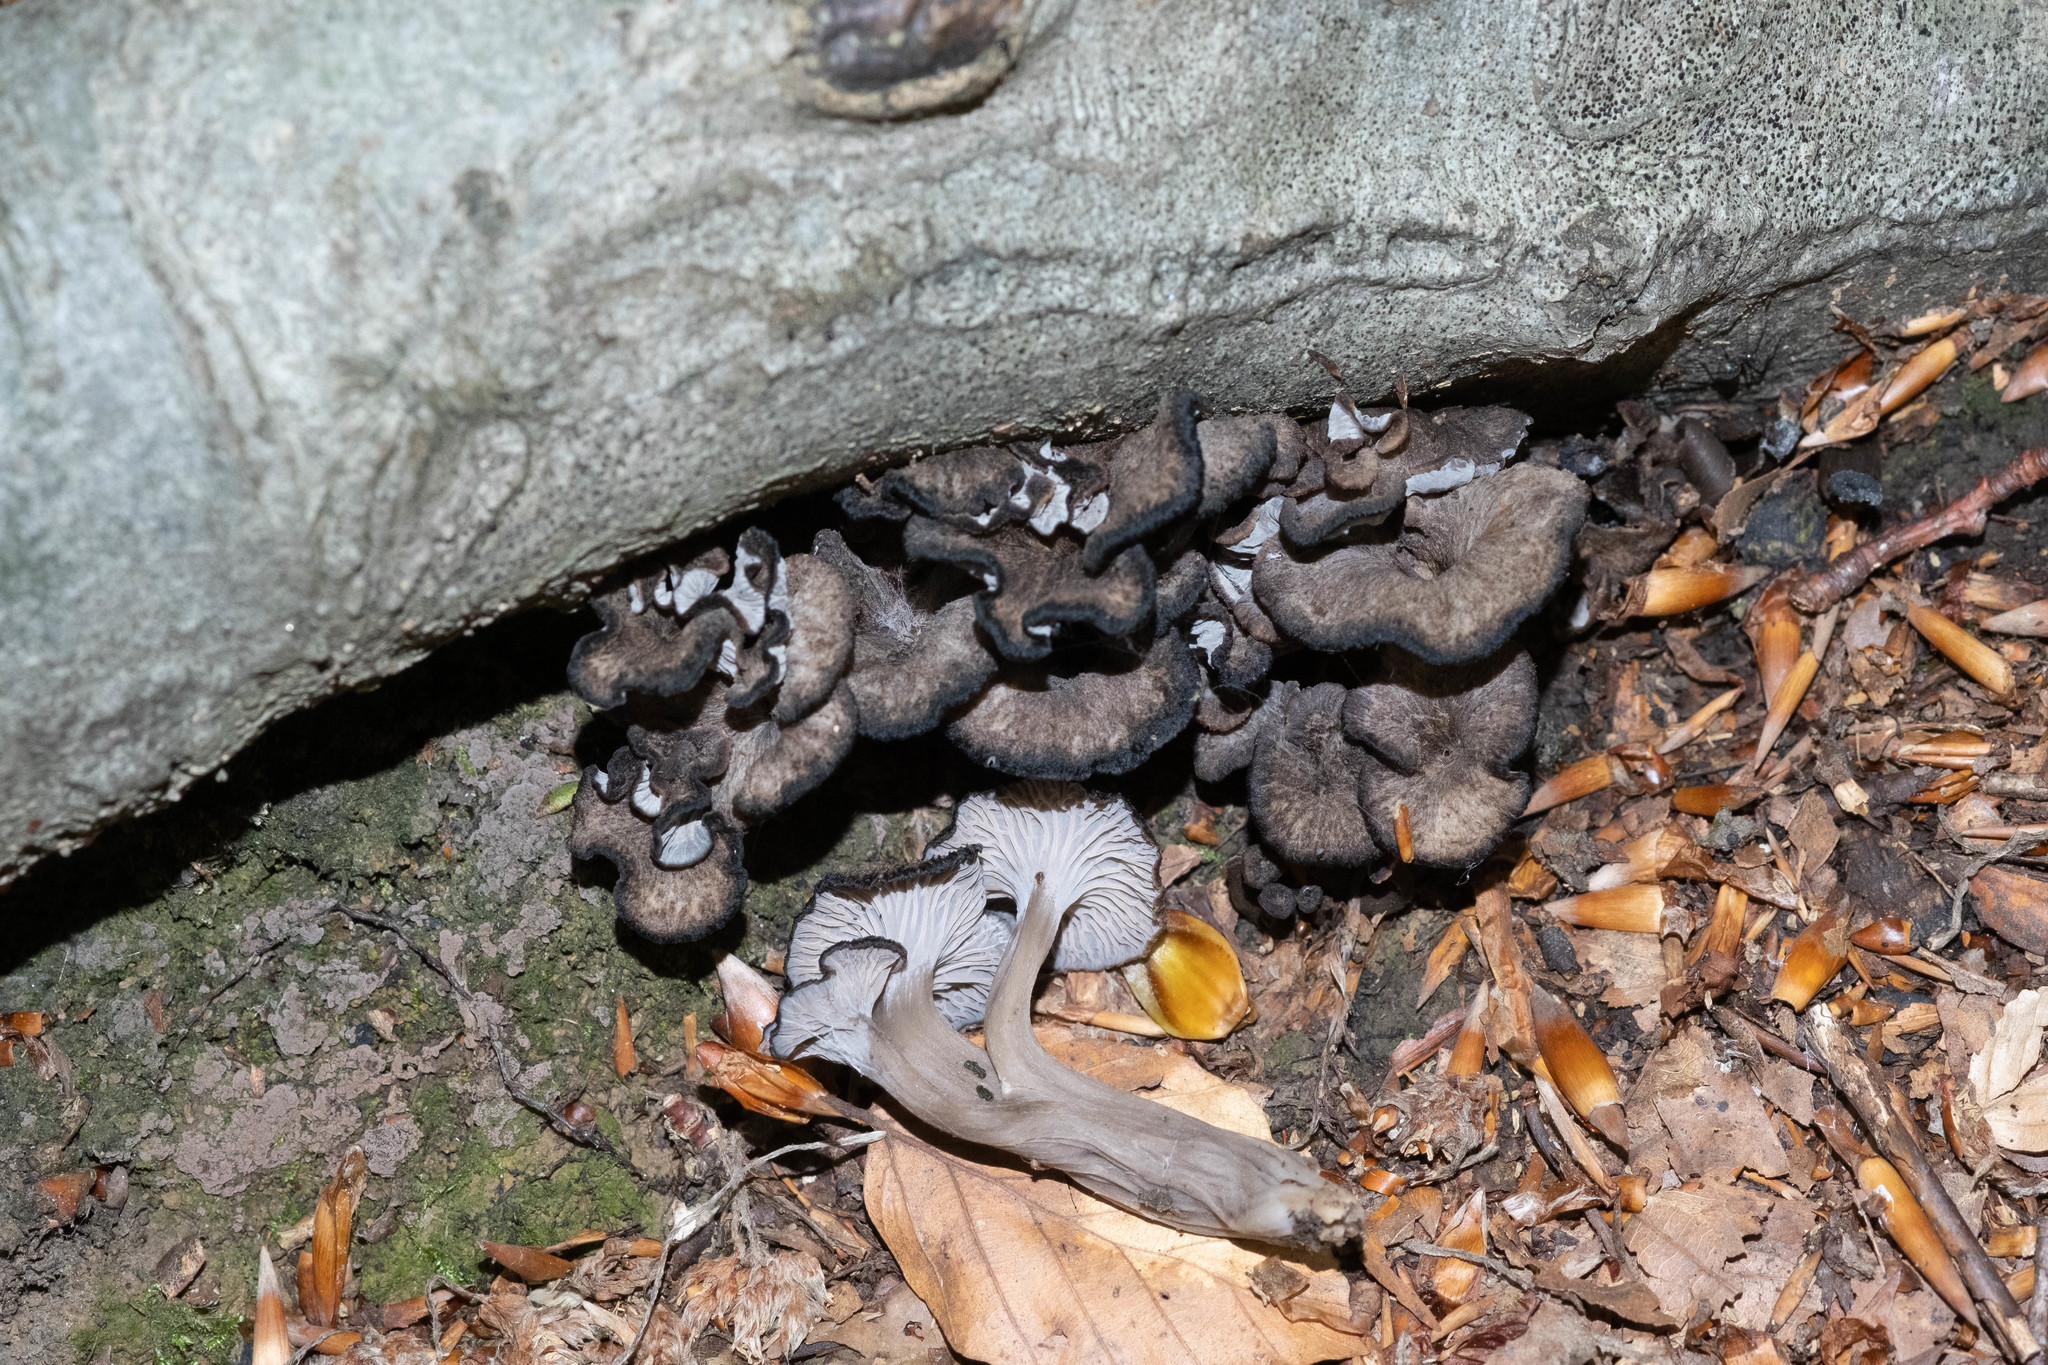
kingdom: Fungi
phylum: Basidiomycota
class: Agaricomycetes
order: Cantharellales
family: Hydnaceae
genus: Cantharellus
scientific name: Cantharellus cinereus
